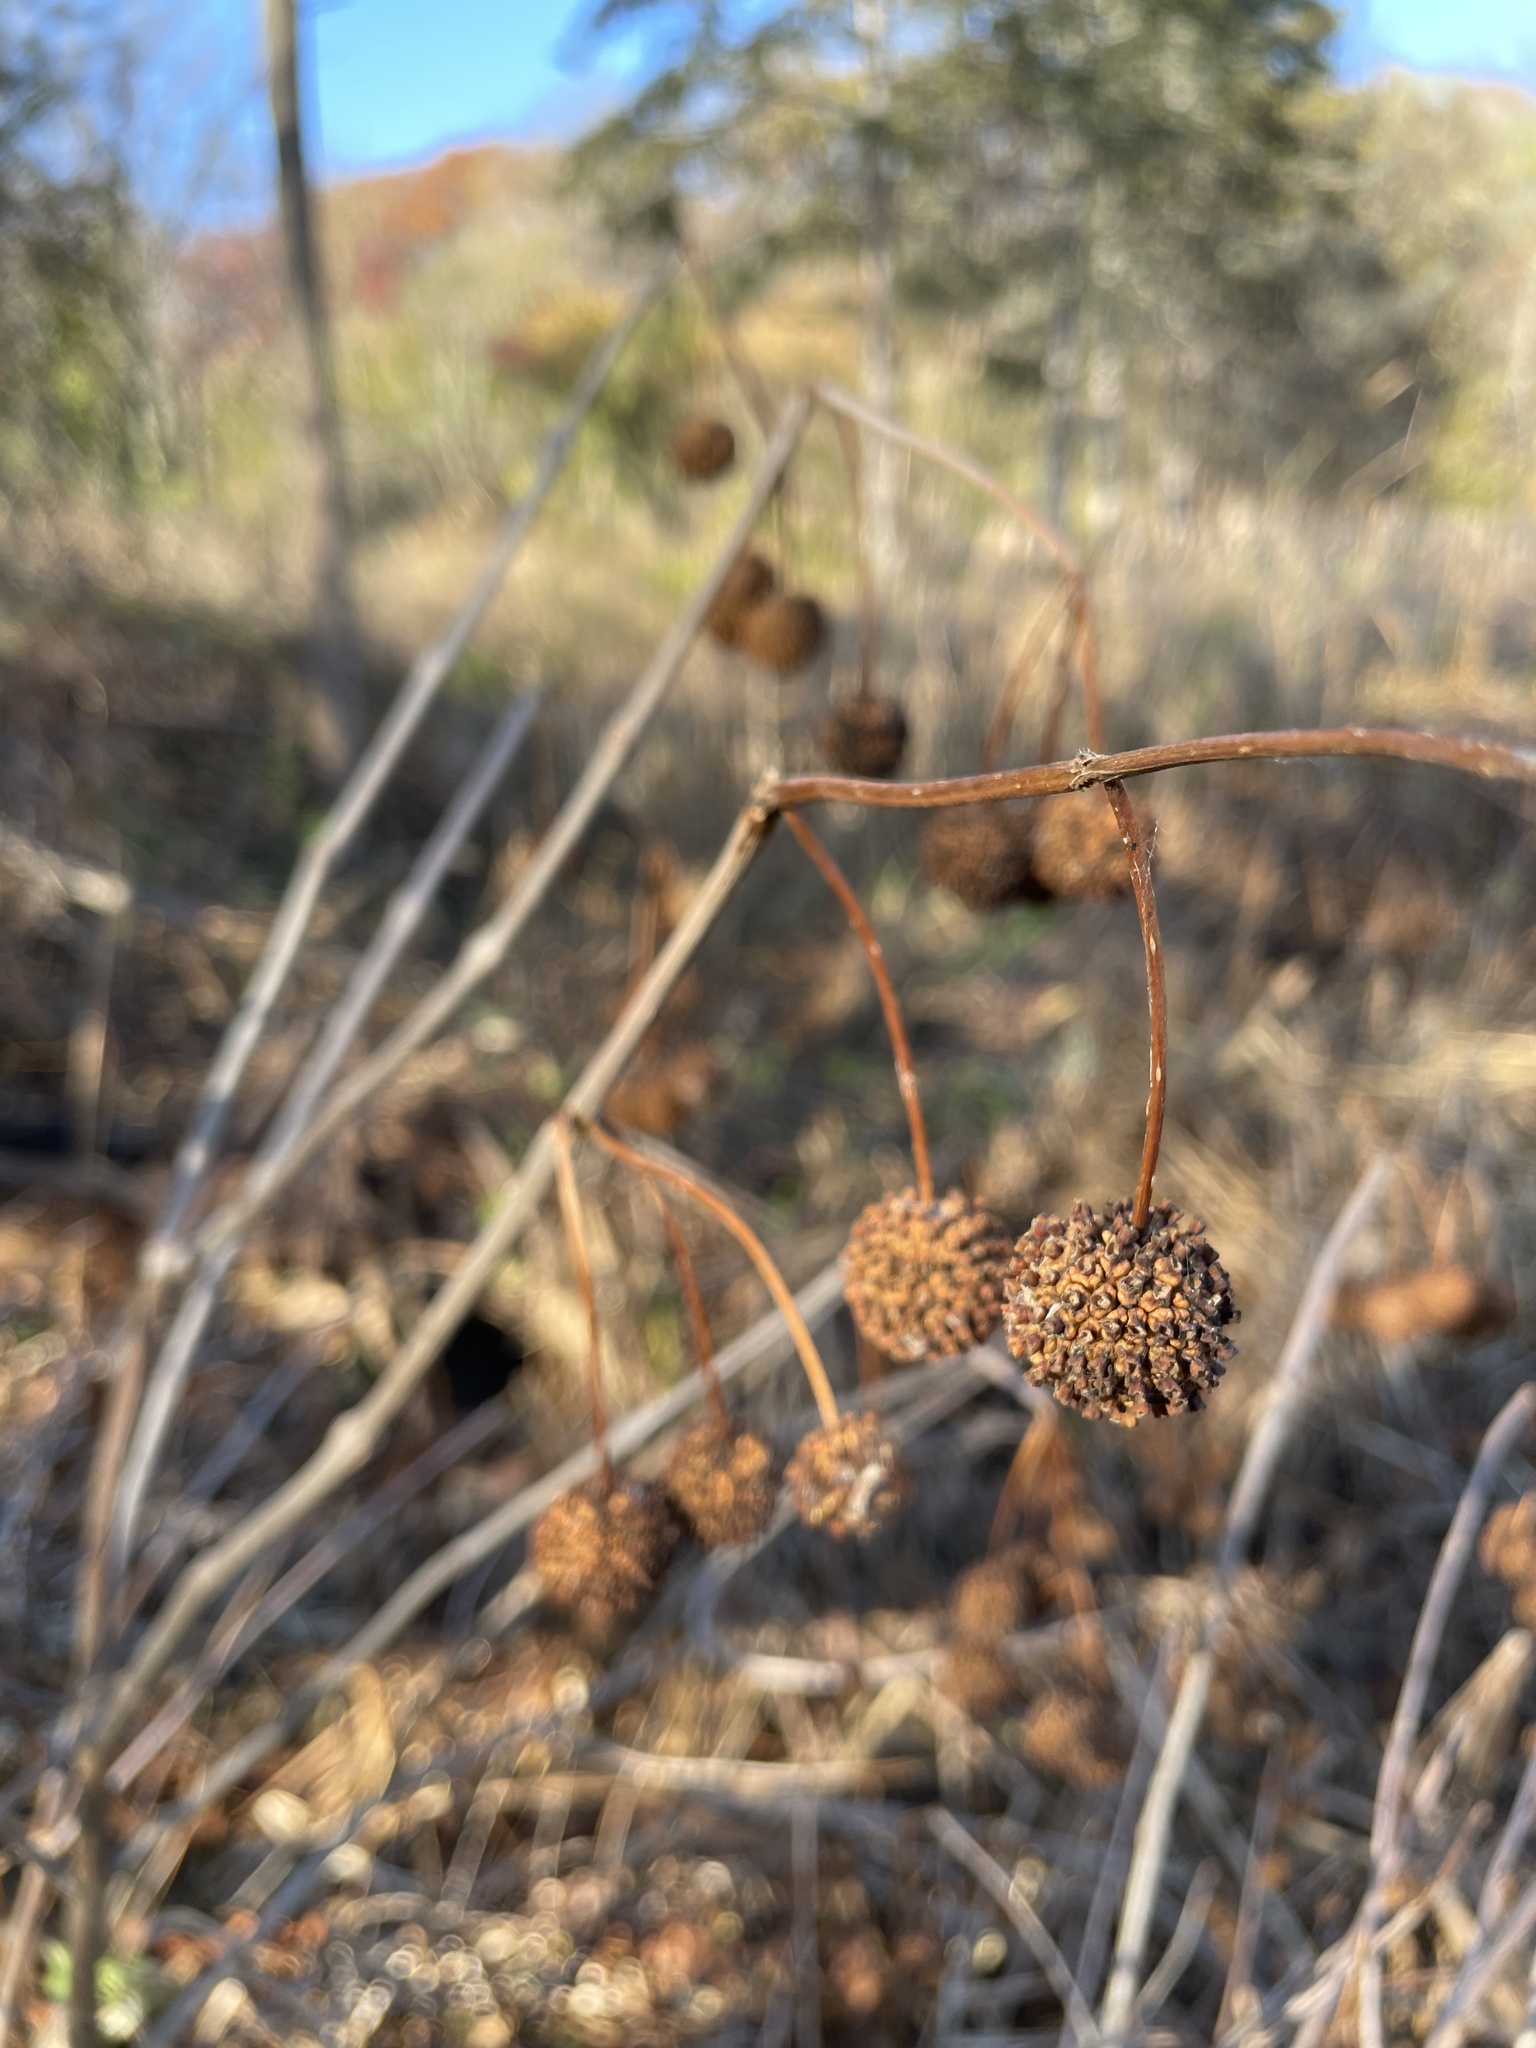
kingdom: Plantae
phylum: Tracheophyta
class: Magnoliopsida
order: Gentianales
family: Rubiaceae
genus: Cephalanthus
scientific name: Cephalanthus occidentalis
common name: Button-willow
